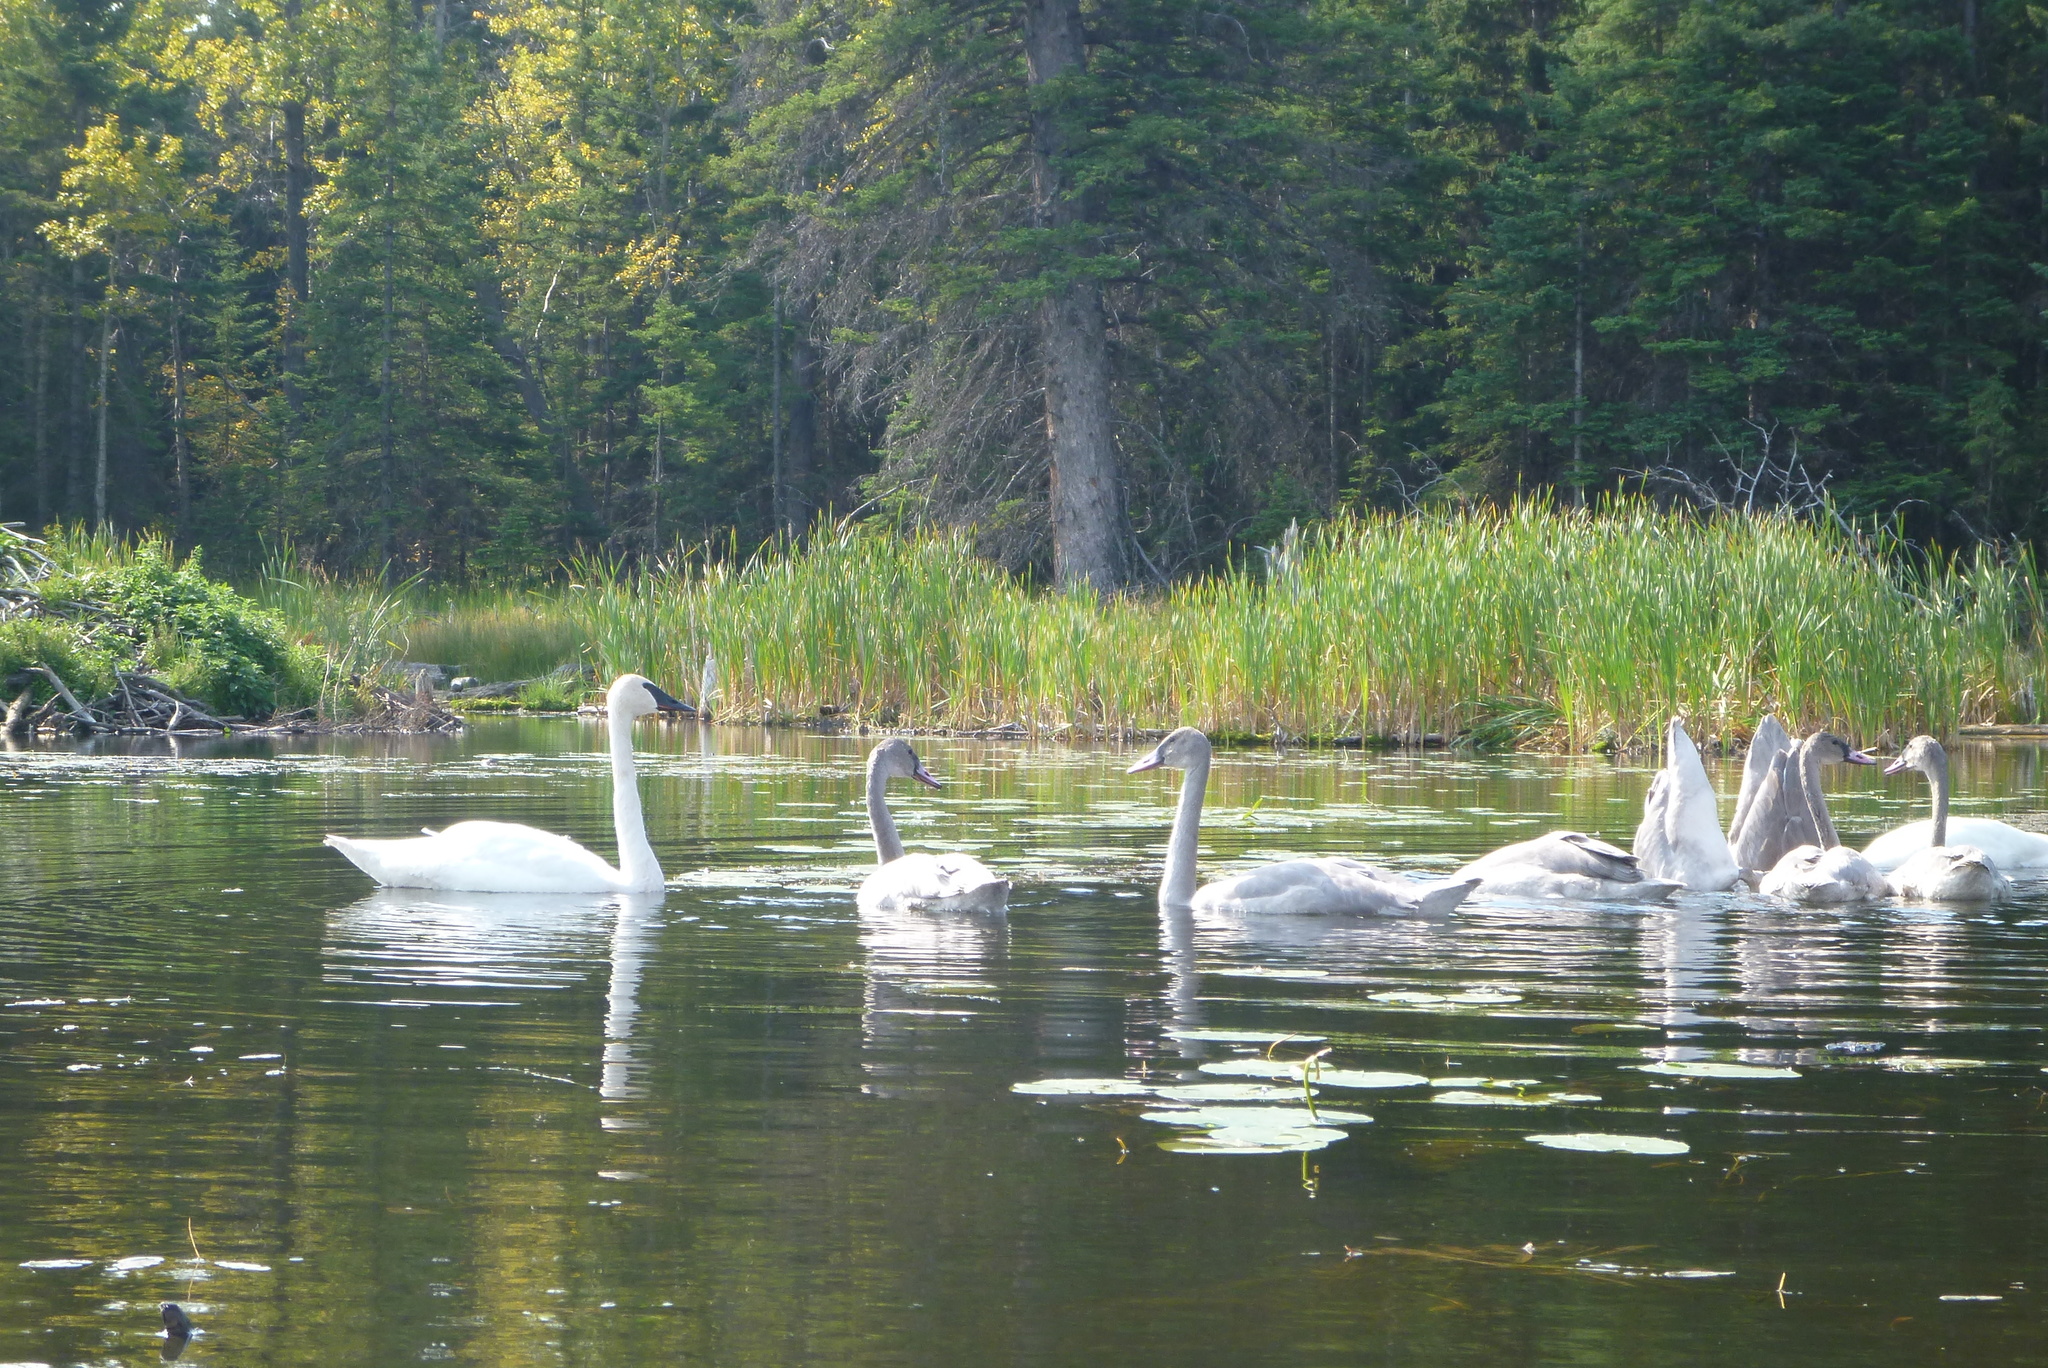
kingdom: Animalia
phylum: Chordata
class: Aves
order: Anseriformes
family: Anatidae
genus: Cygnus
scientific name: Cygnus buccinator
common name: Trumpeter swan
